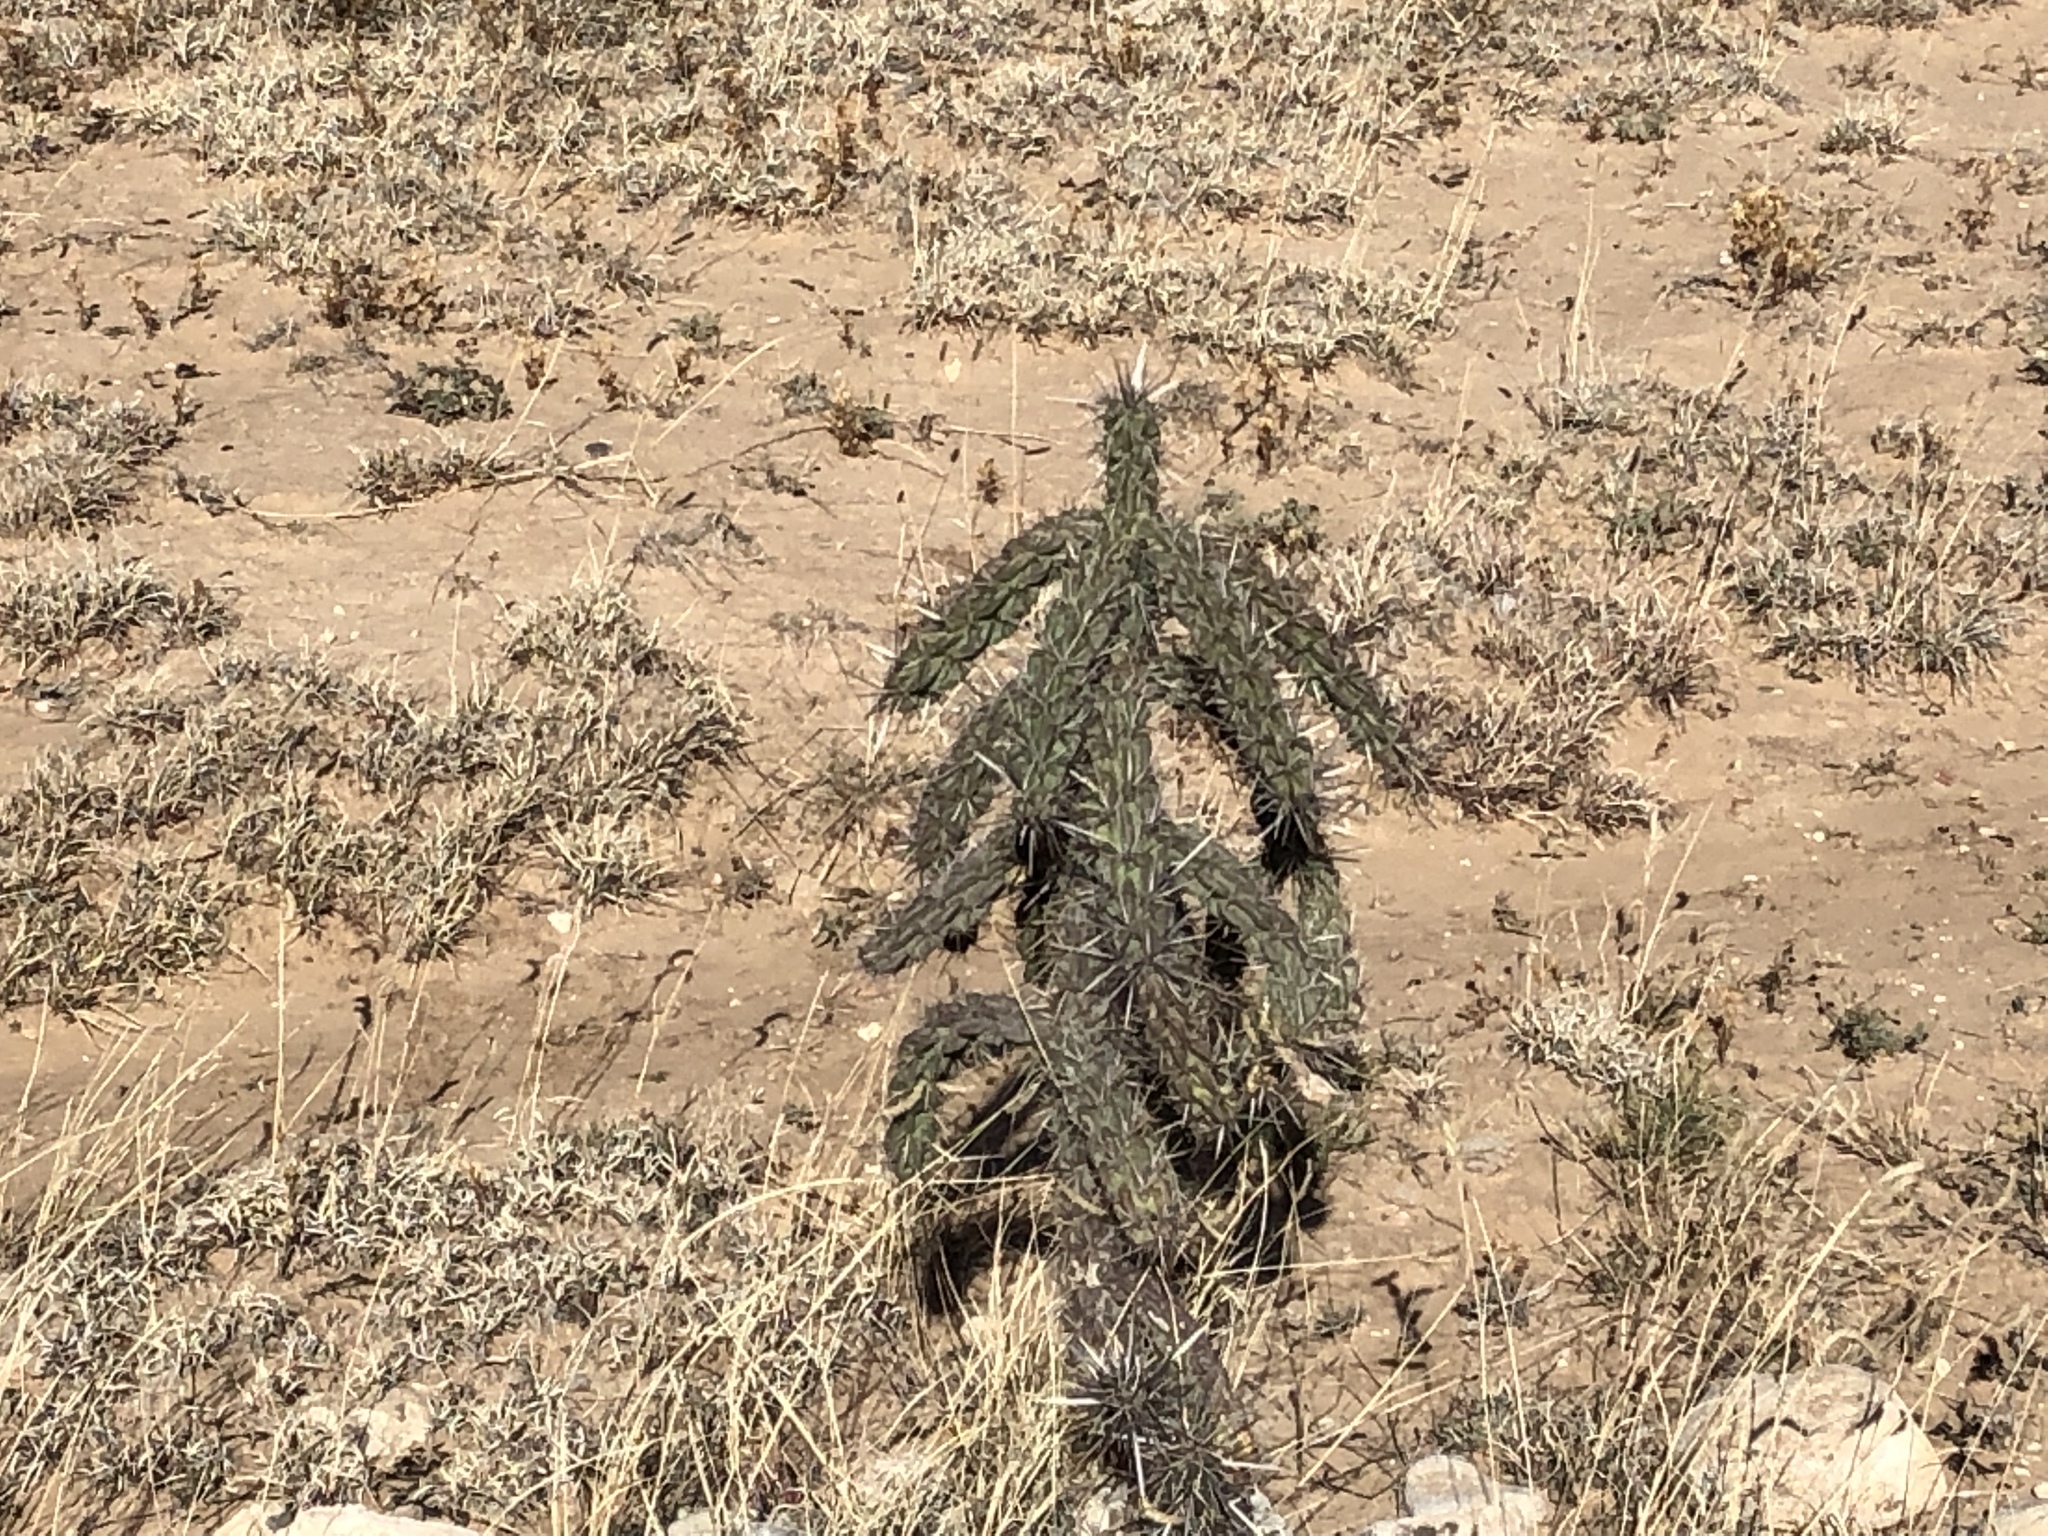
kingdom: Plantae
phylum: Tracheophyta
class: Magnoliopsida
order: Caryophyllales
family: Cactaceae
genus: Cylindropuntia
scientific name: Cylindropuntia imbricata
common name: Candelabrum cactus
